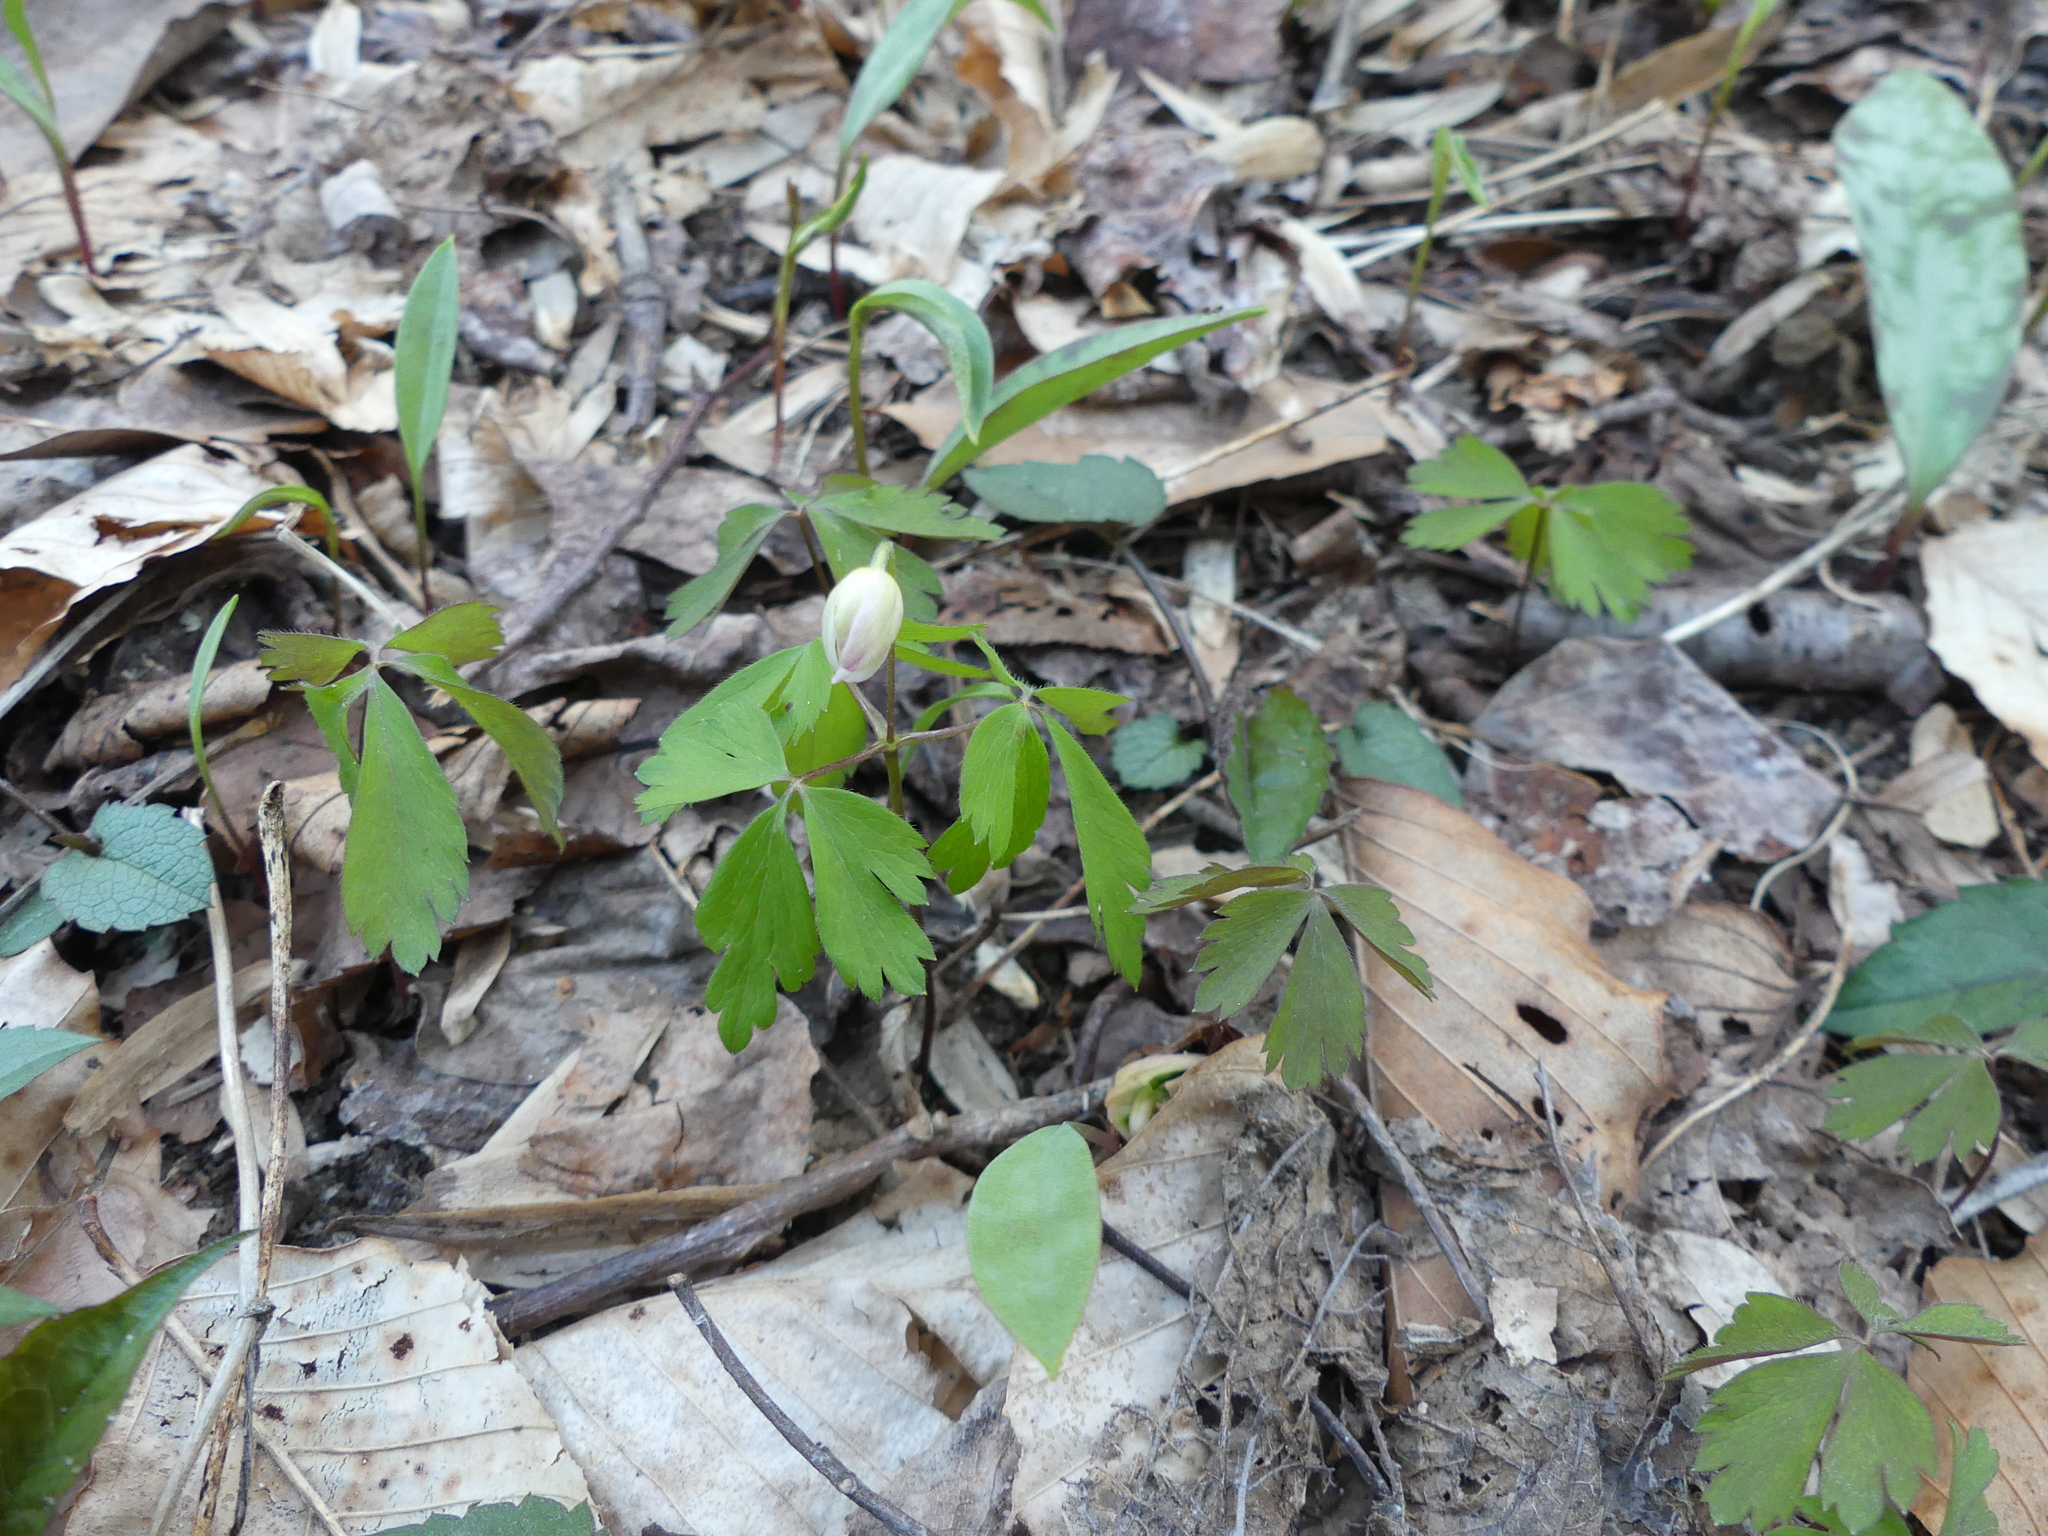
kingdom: Plantae
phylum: Tracheophyta
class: Magnoliopsida
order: Ranunculales
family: Ranunculaceae
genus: Anemone
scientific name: Anemone quinquefolia
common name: Wood anemone
